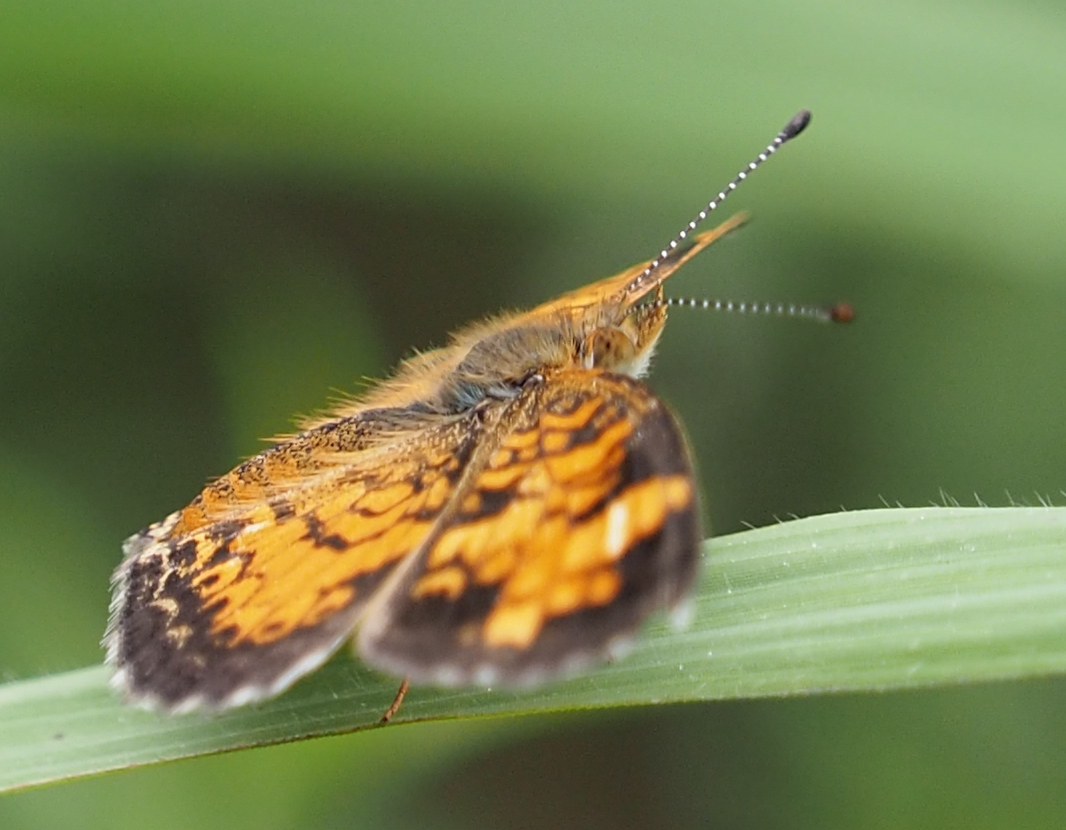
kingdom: Animalia
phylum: Arthropoda
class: Insecta
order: Lepidoptera
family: Nymphalidae
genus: Phyciodes
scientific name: Phyciodes tharos
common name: Pearl crescent
